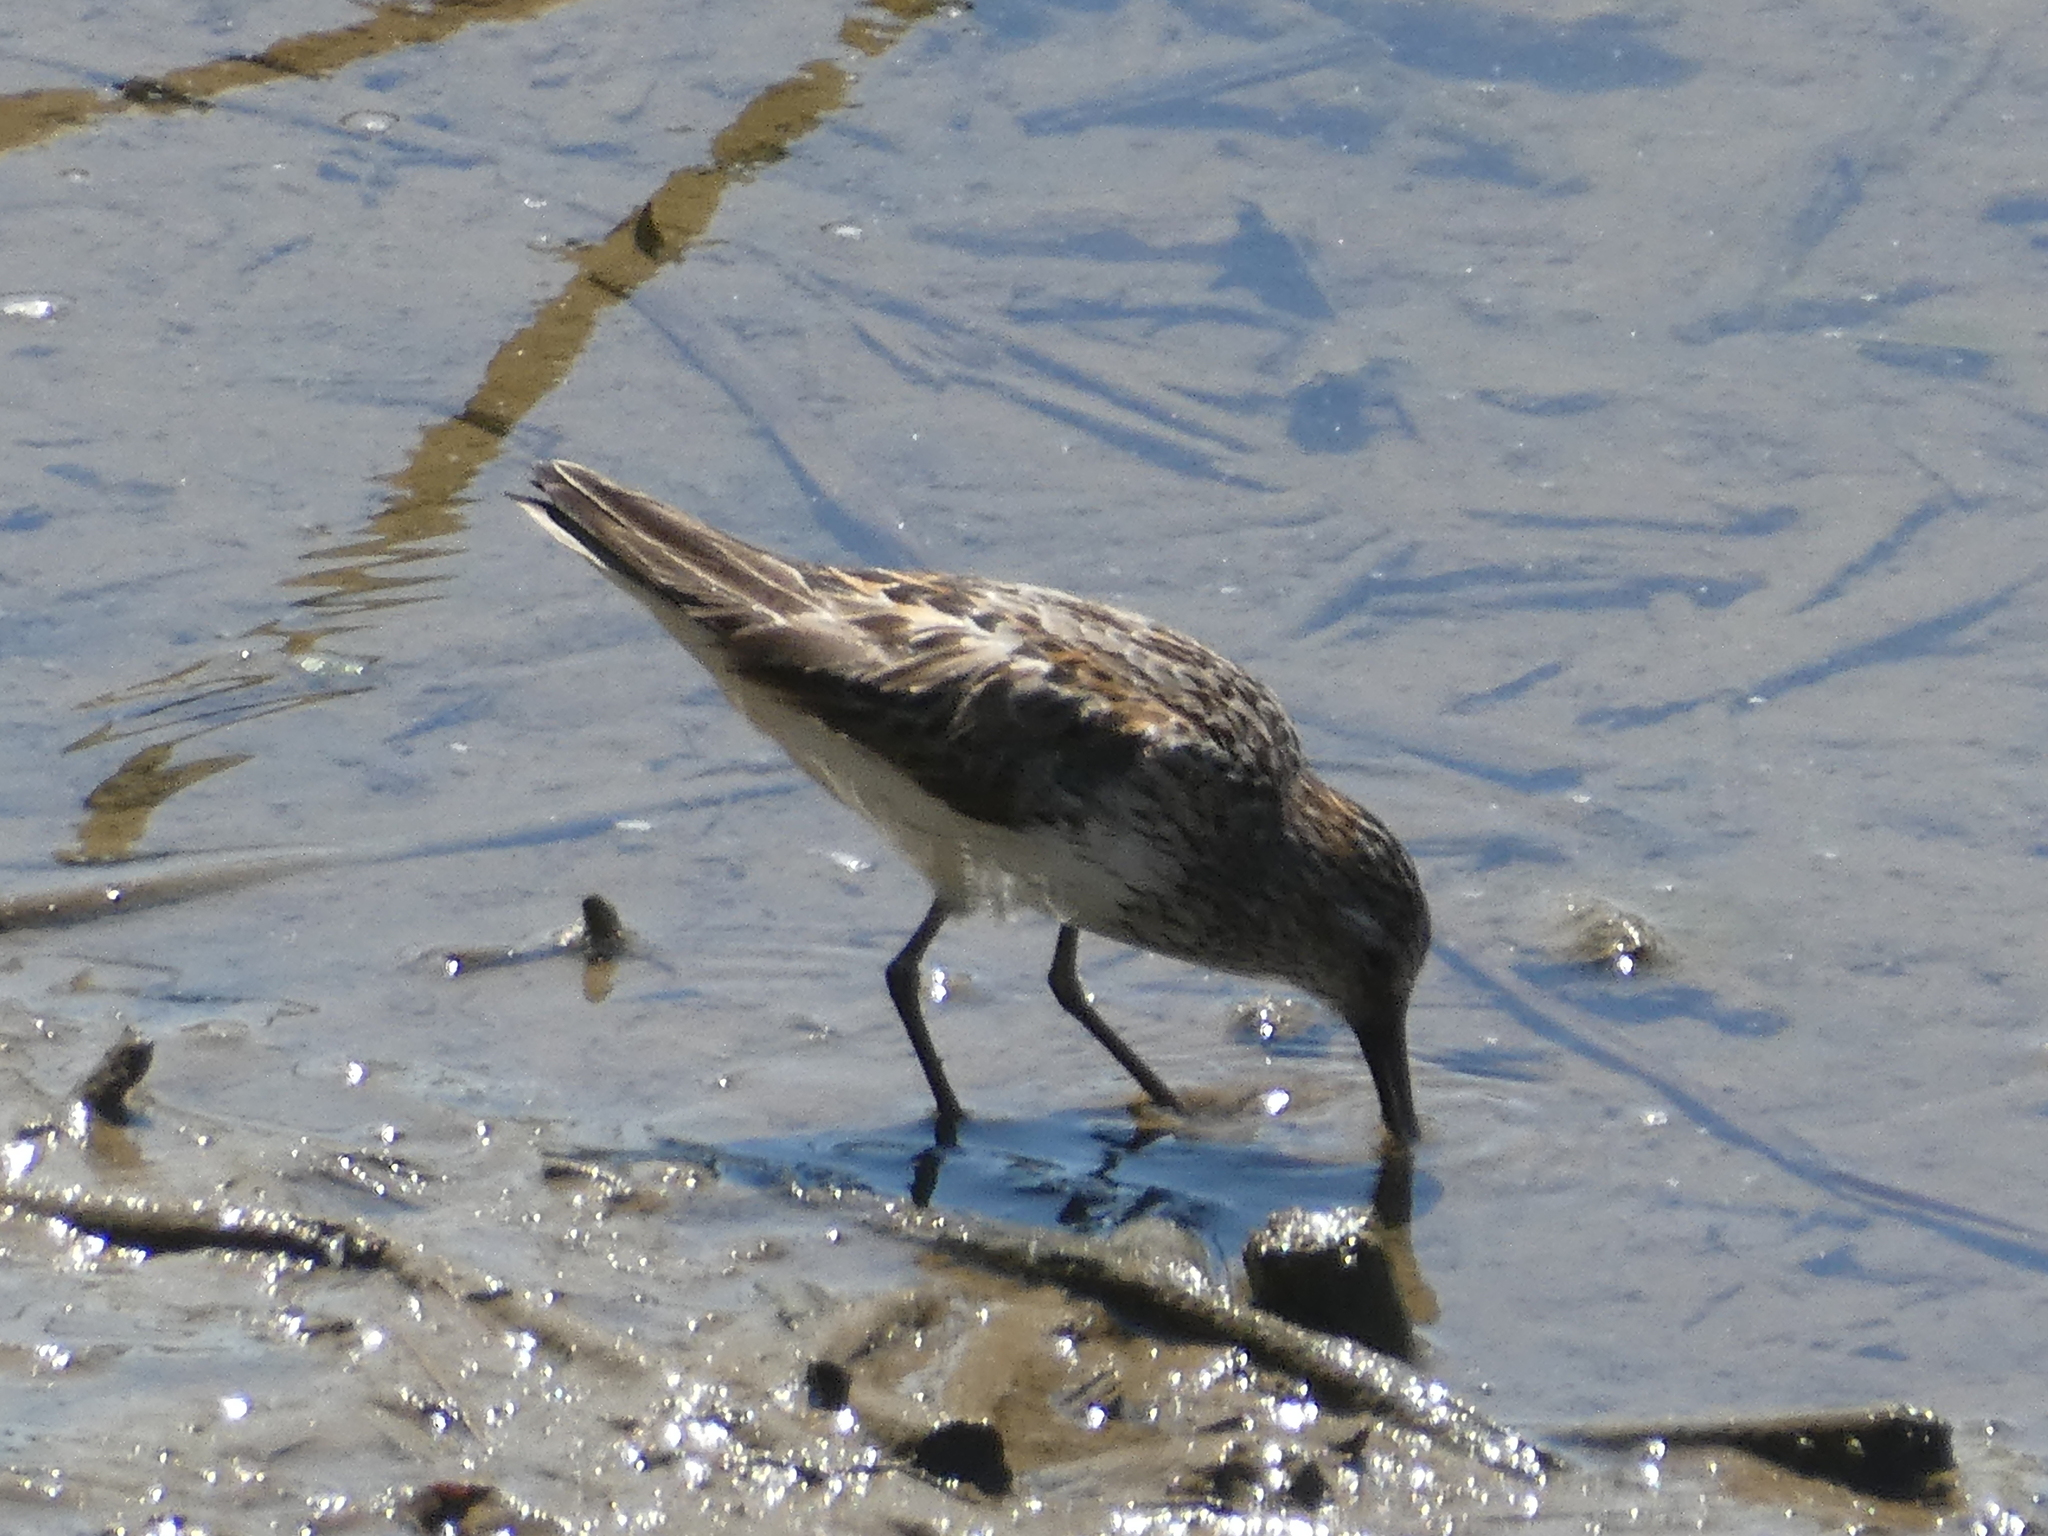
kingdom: Animalia
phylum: Chordata
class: Aves
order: Charadriiformes
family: Scolopacidae
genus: Calidris
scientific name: Calidris mauri
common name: Western sandpiper
